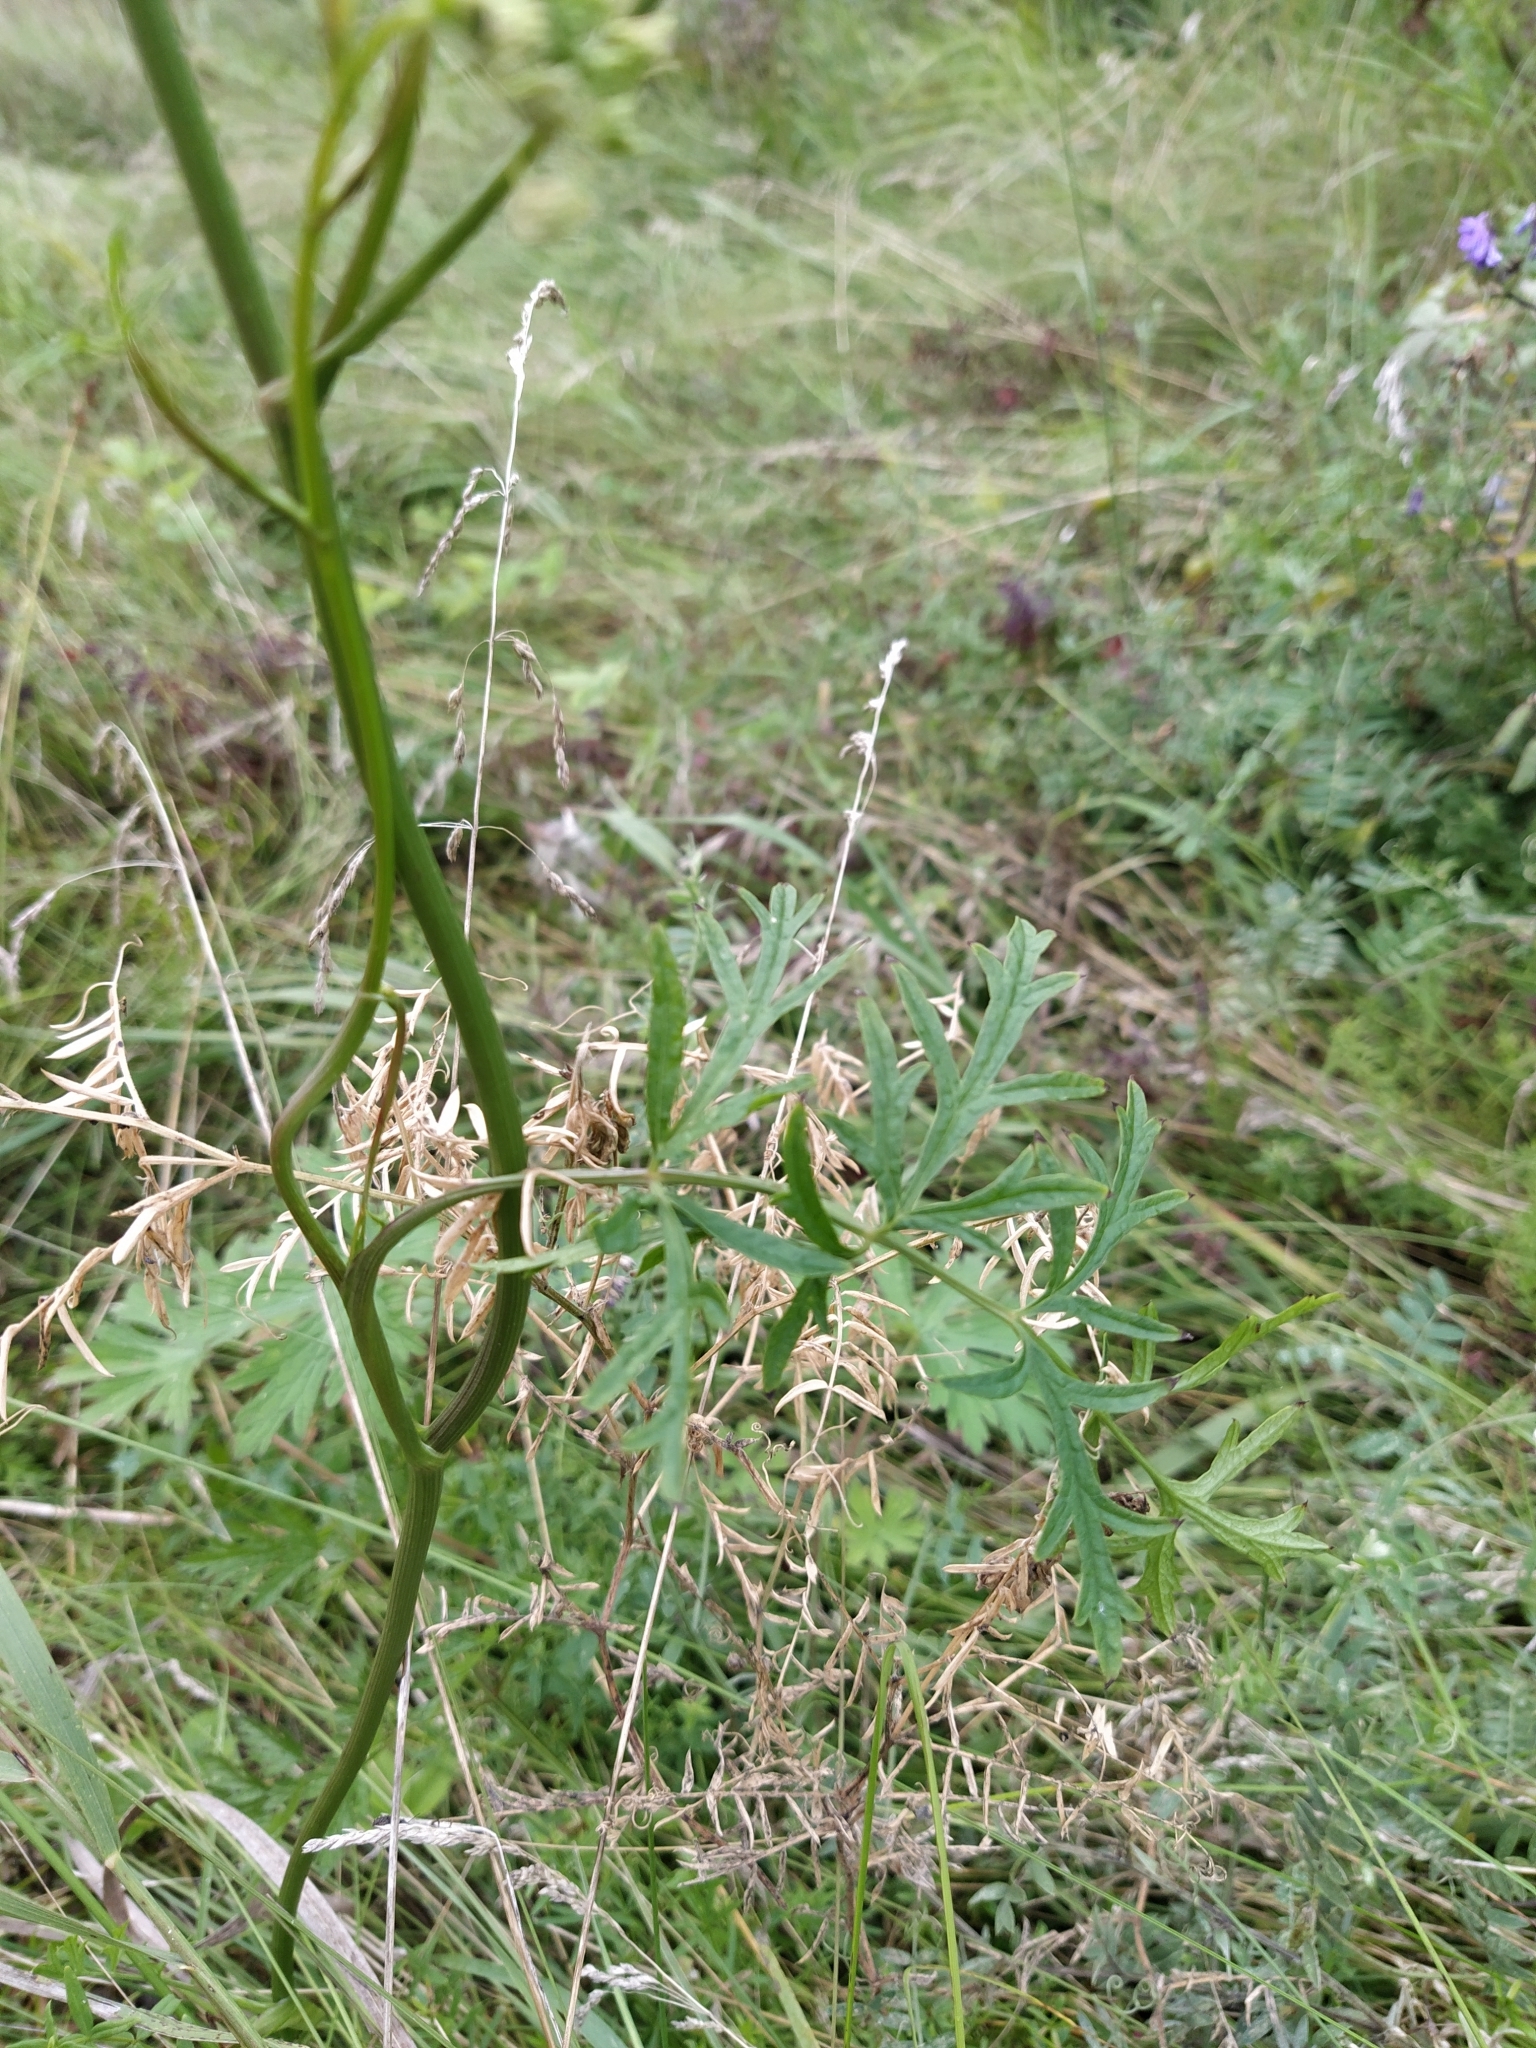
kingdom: Plantae
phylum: Tracheophyta
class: Magnoliopsida
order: Apiales
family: Apiaceae
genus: Pimpinella
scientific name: Pimpinella saxifraga
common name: Burnet-saxifrage
